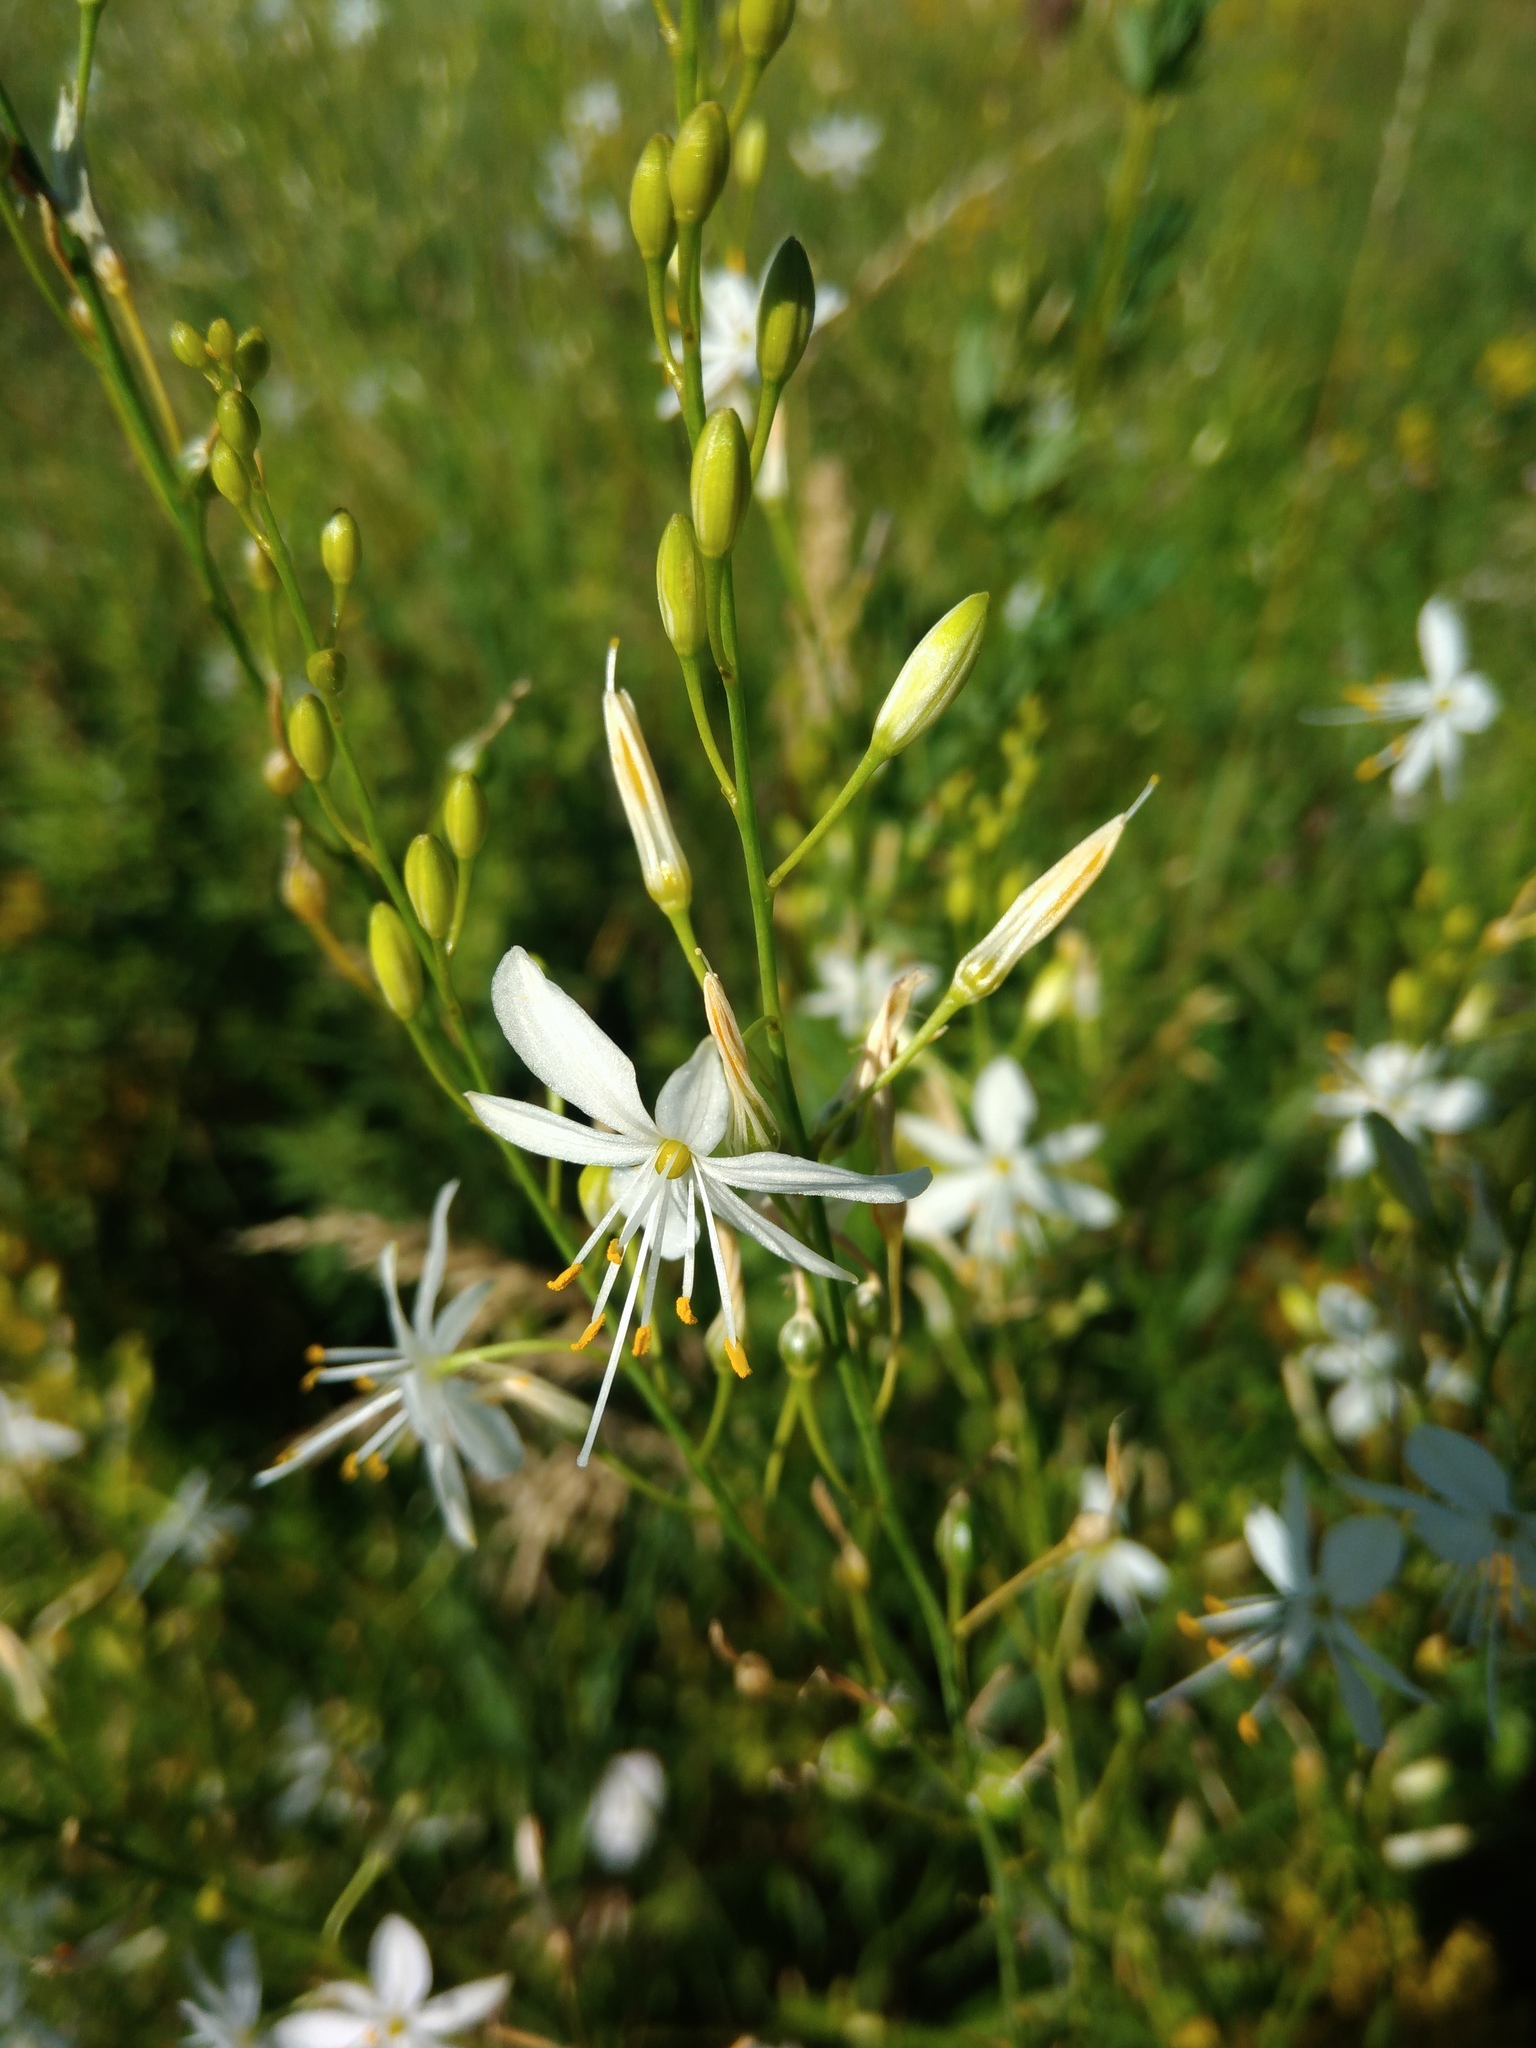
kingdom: Plantae
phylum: Tracheophyta
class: Liliopsida
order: Asparagales
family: Asparagaceae
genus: Anthericum
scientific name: Anthericum ramosum
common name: Branched st. bernard's-lily
